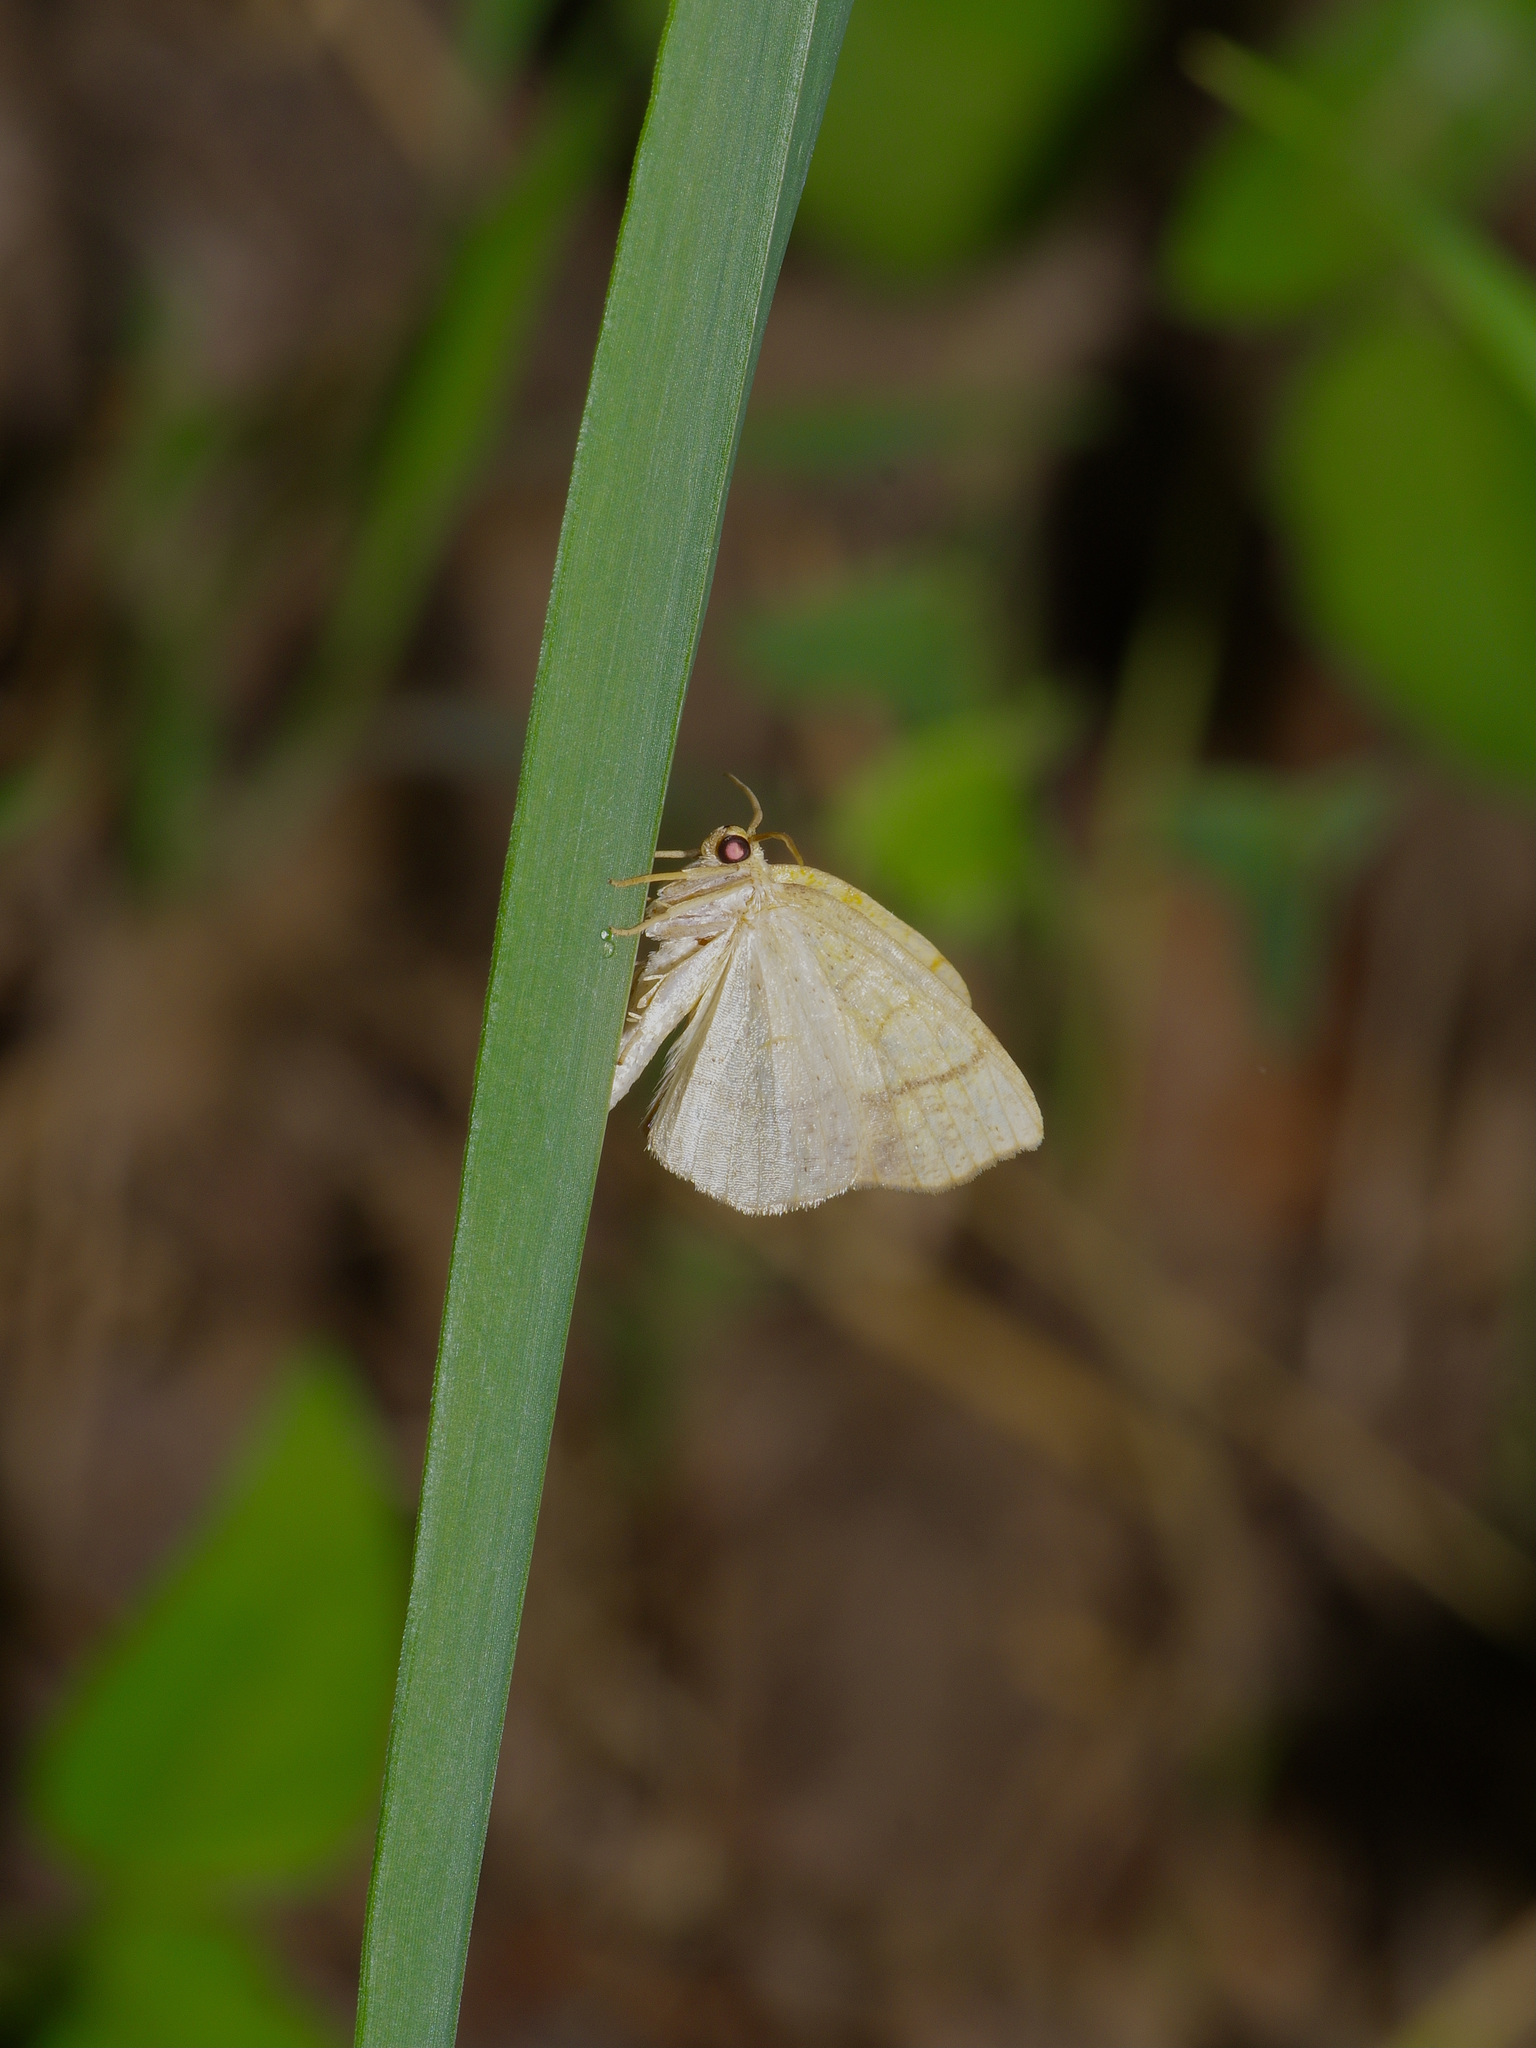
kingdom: Animalia
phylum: Arthropoda
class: Insecta
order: Lepidoptera
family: Geometridae
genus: Nematocampa
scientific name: Nematocampa resistaria
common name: Horned spanworm moth
